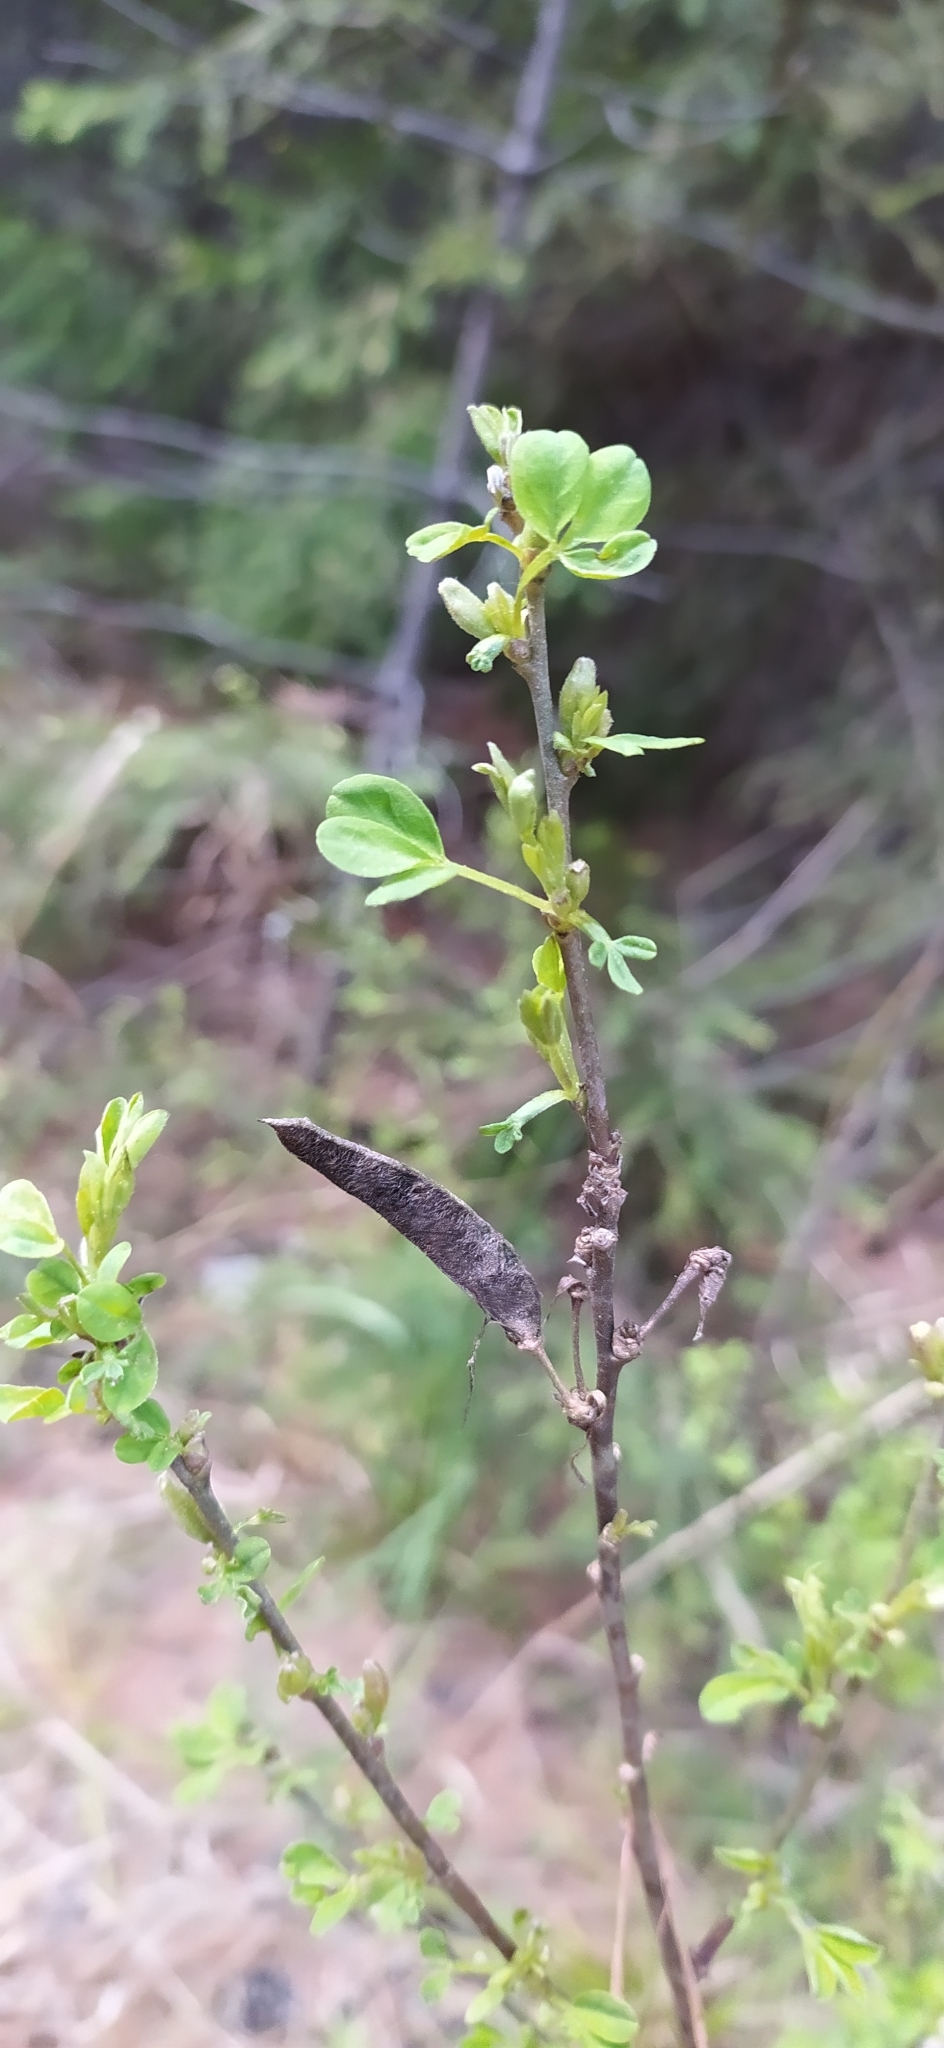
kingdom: Plantae
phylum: Tracheophyta
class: Magnoliopsida
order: Fabales
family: Fabaceae
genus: Chamaecytisus
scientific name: Chamaecytisus ruthenicus
